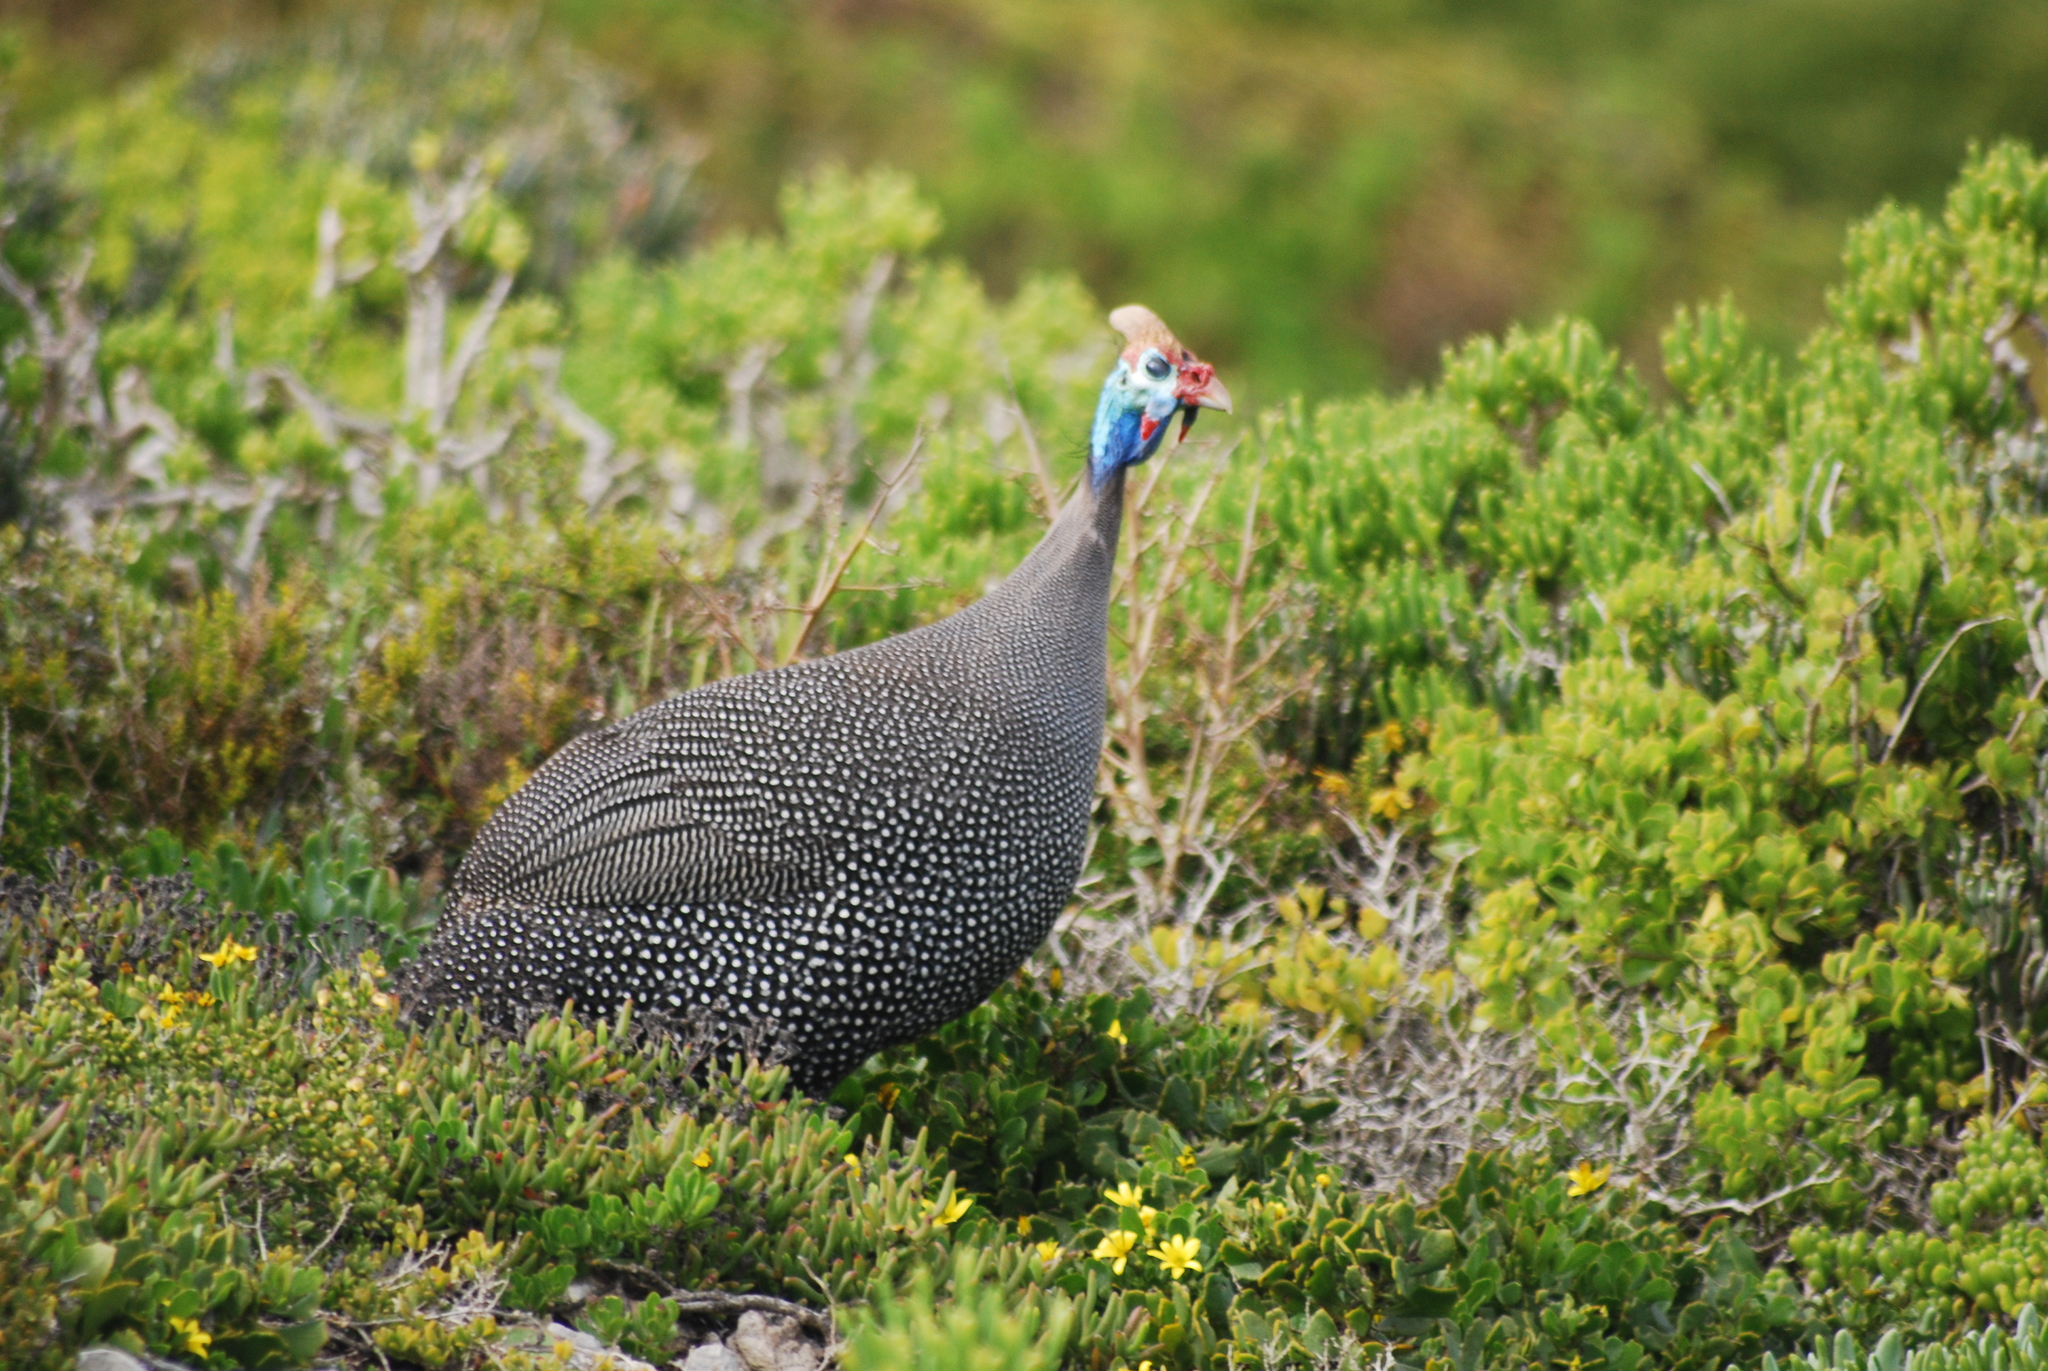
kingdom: Animalia
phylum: Chordata
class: Aves
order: Galliformes
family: Numididae
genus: Numida
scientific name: Numida meleagris
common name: Helmeted guineafowl
